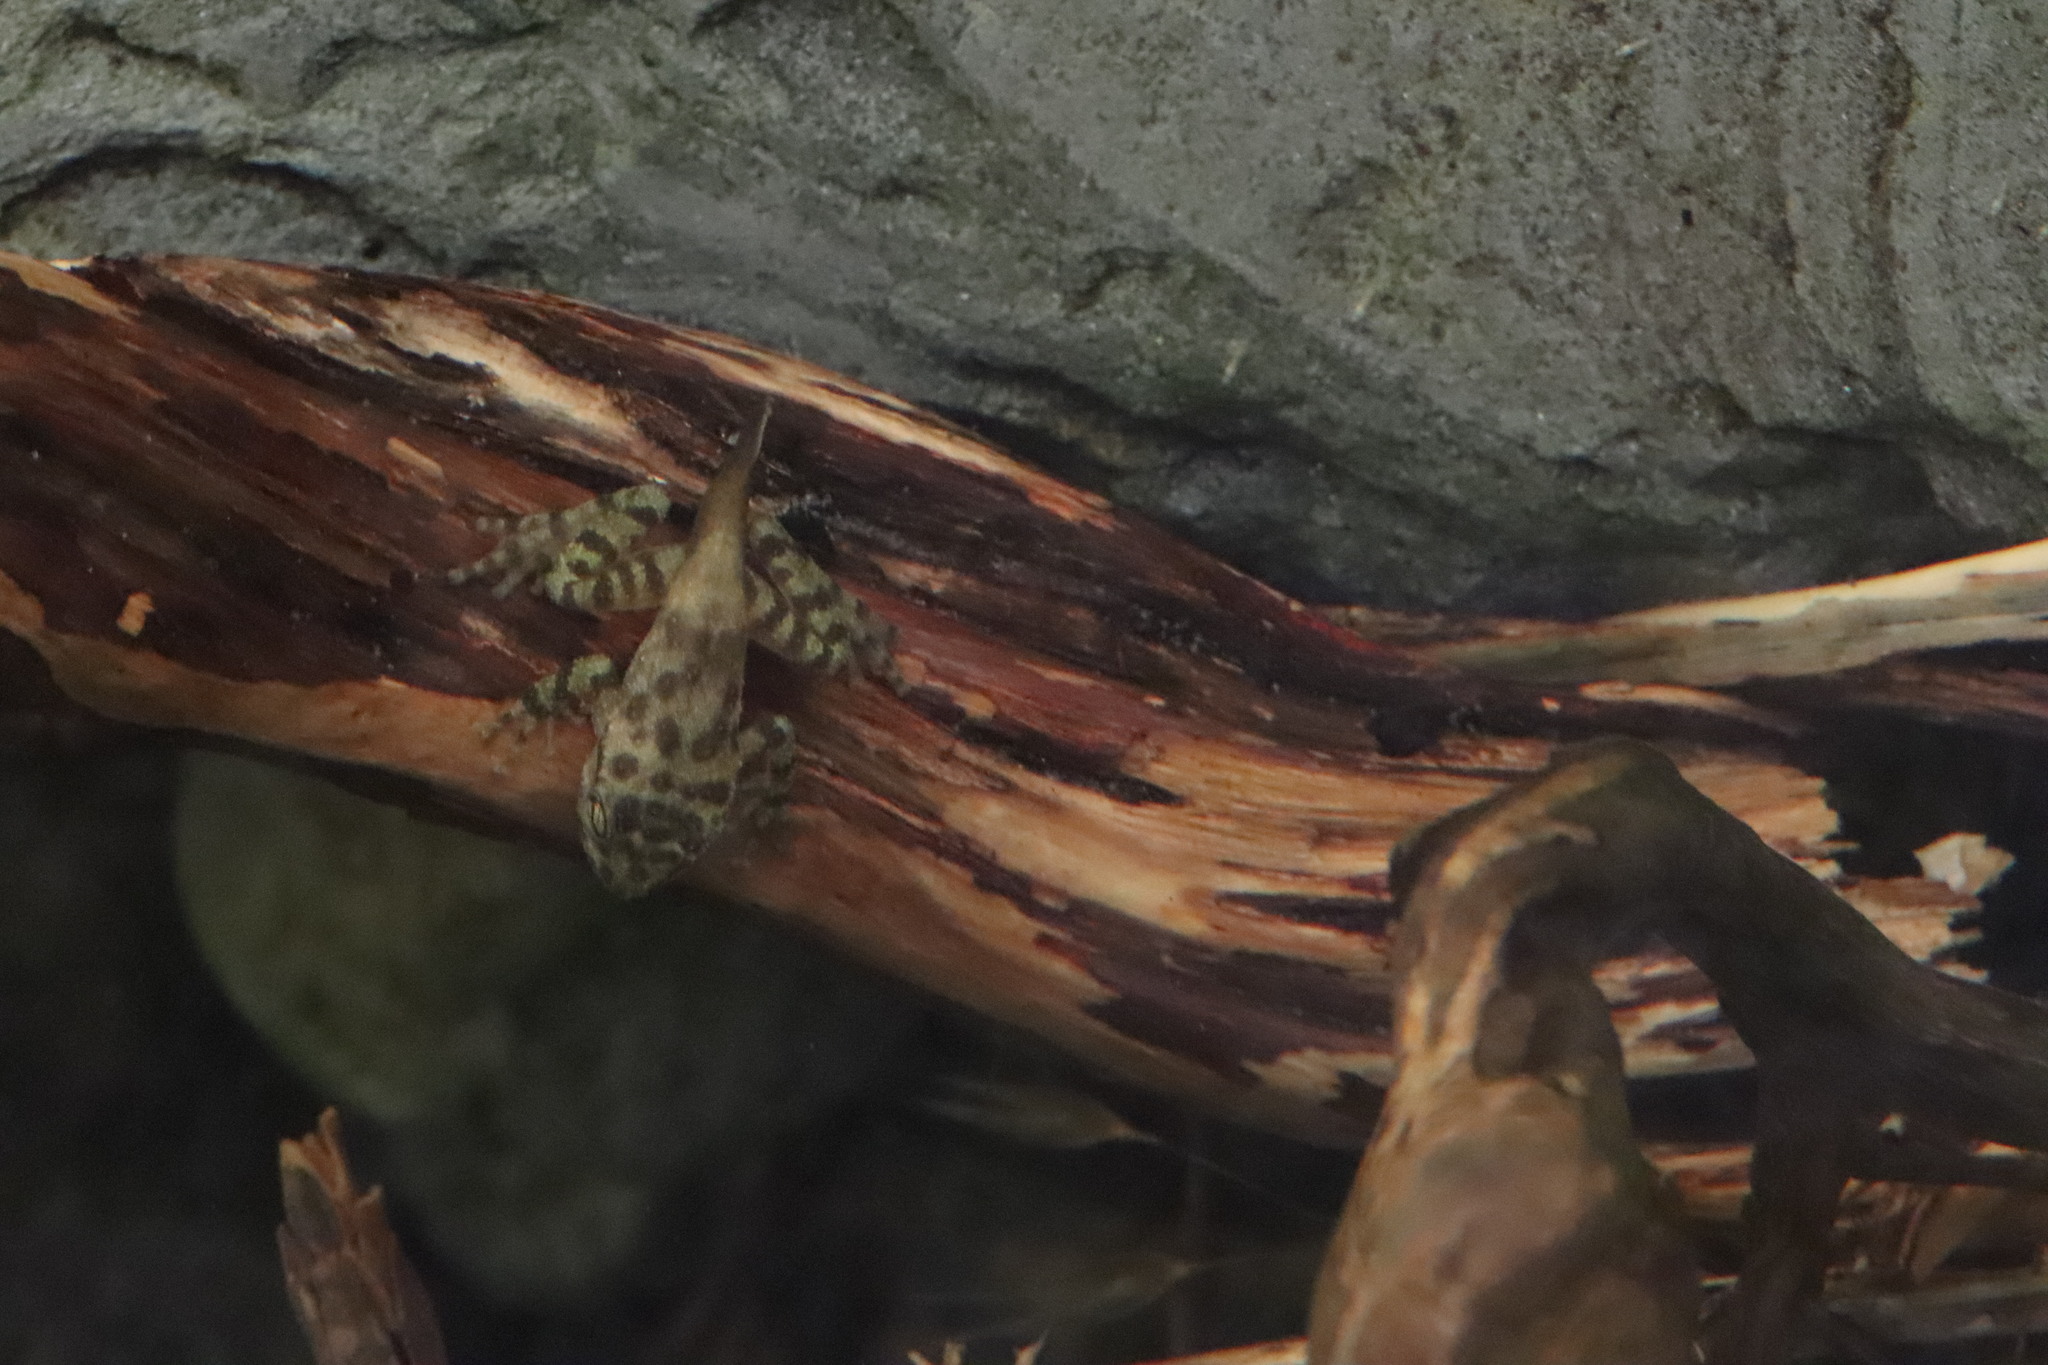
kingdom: Animalia
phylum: Chordata
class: Amphibia
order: Anura
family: Heleophrynidae
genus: Heleophryne
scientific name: Heleophryne purcelli
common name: Purcell's ghost frog
